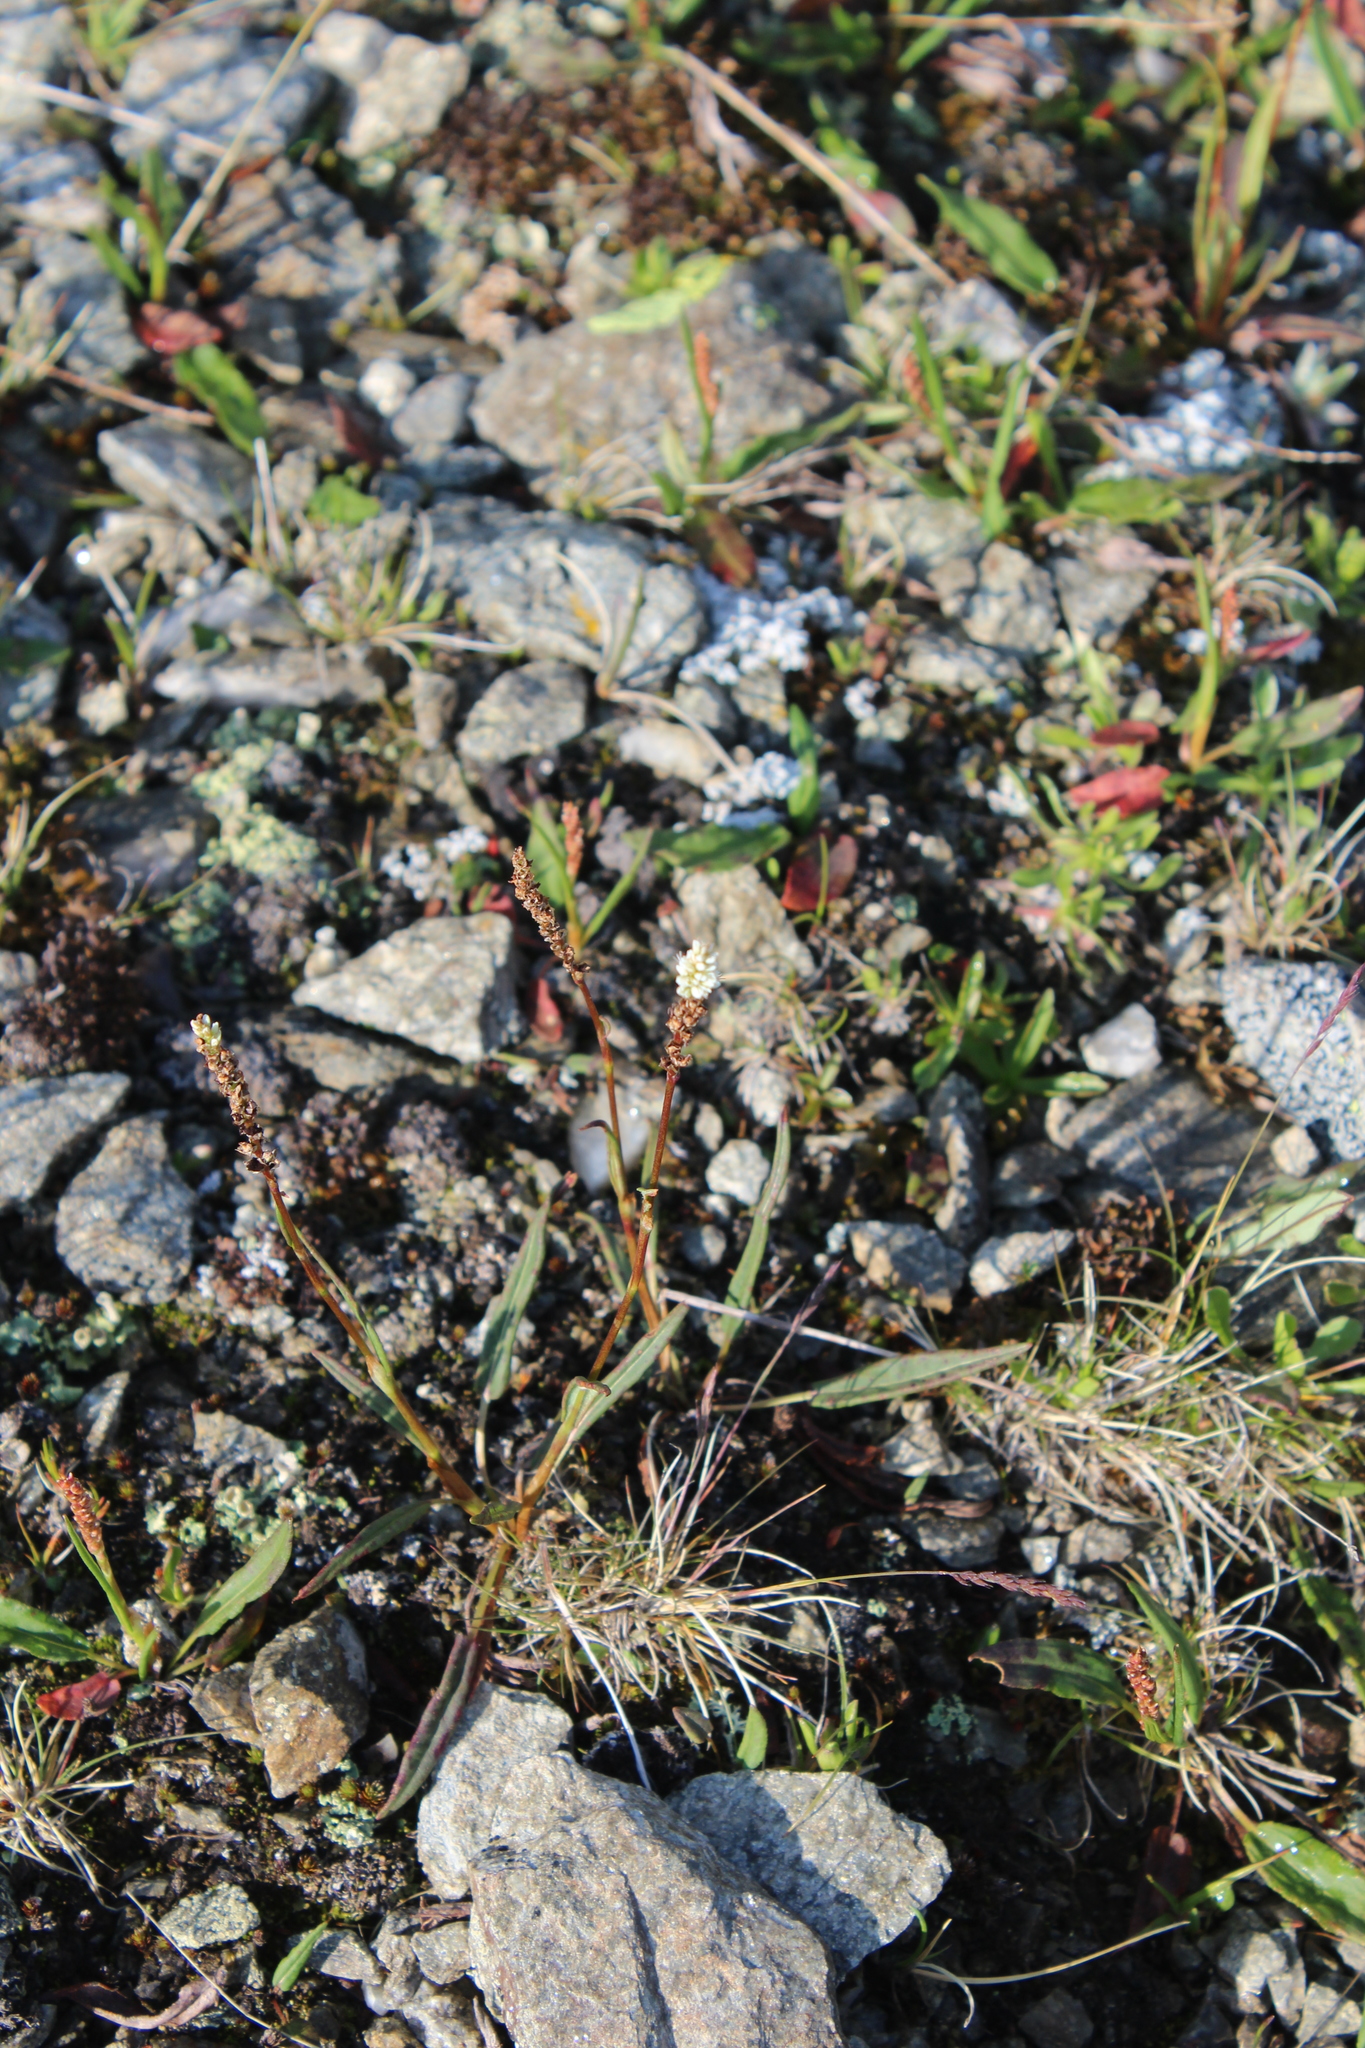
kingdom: Plantae
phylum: Tracheophyta
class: Magnoliopsida
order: Caryophyllales
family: Polygonaceae
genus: Bistorta
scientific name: Bistorta vivipara
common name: Alpine bistort
